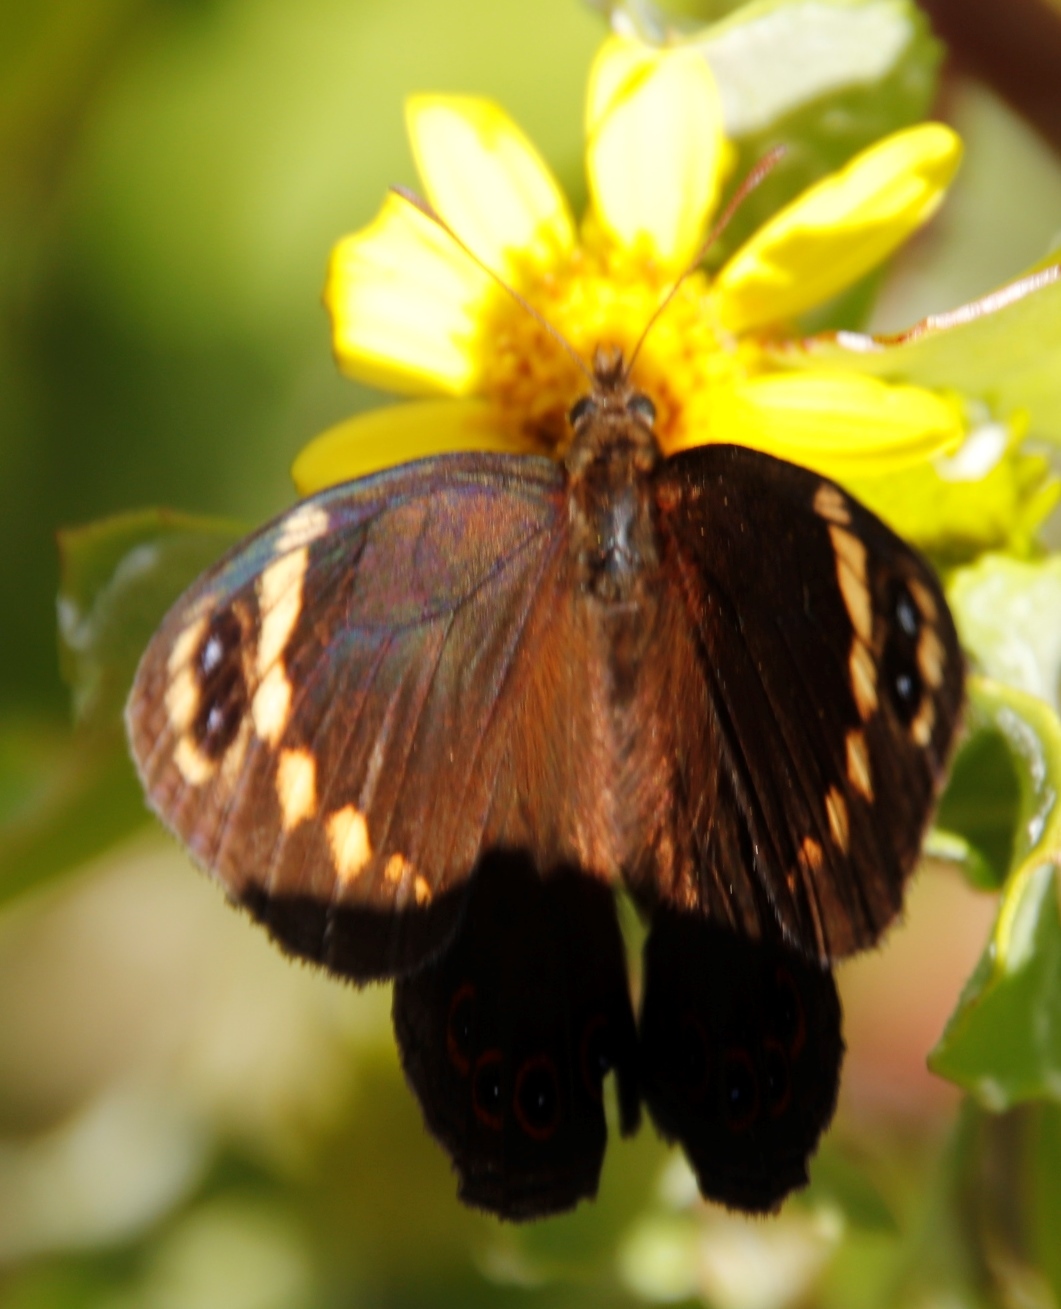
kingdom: Animalia
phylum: Arthropoda
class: Insecta
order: Lepidoptera
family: Nymphalidae
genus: Dira
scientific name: Dira clytus
